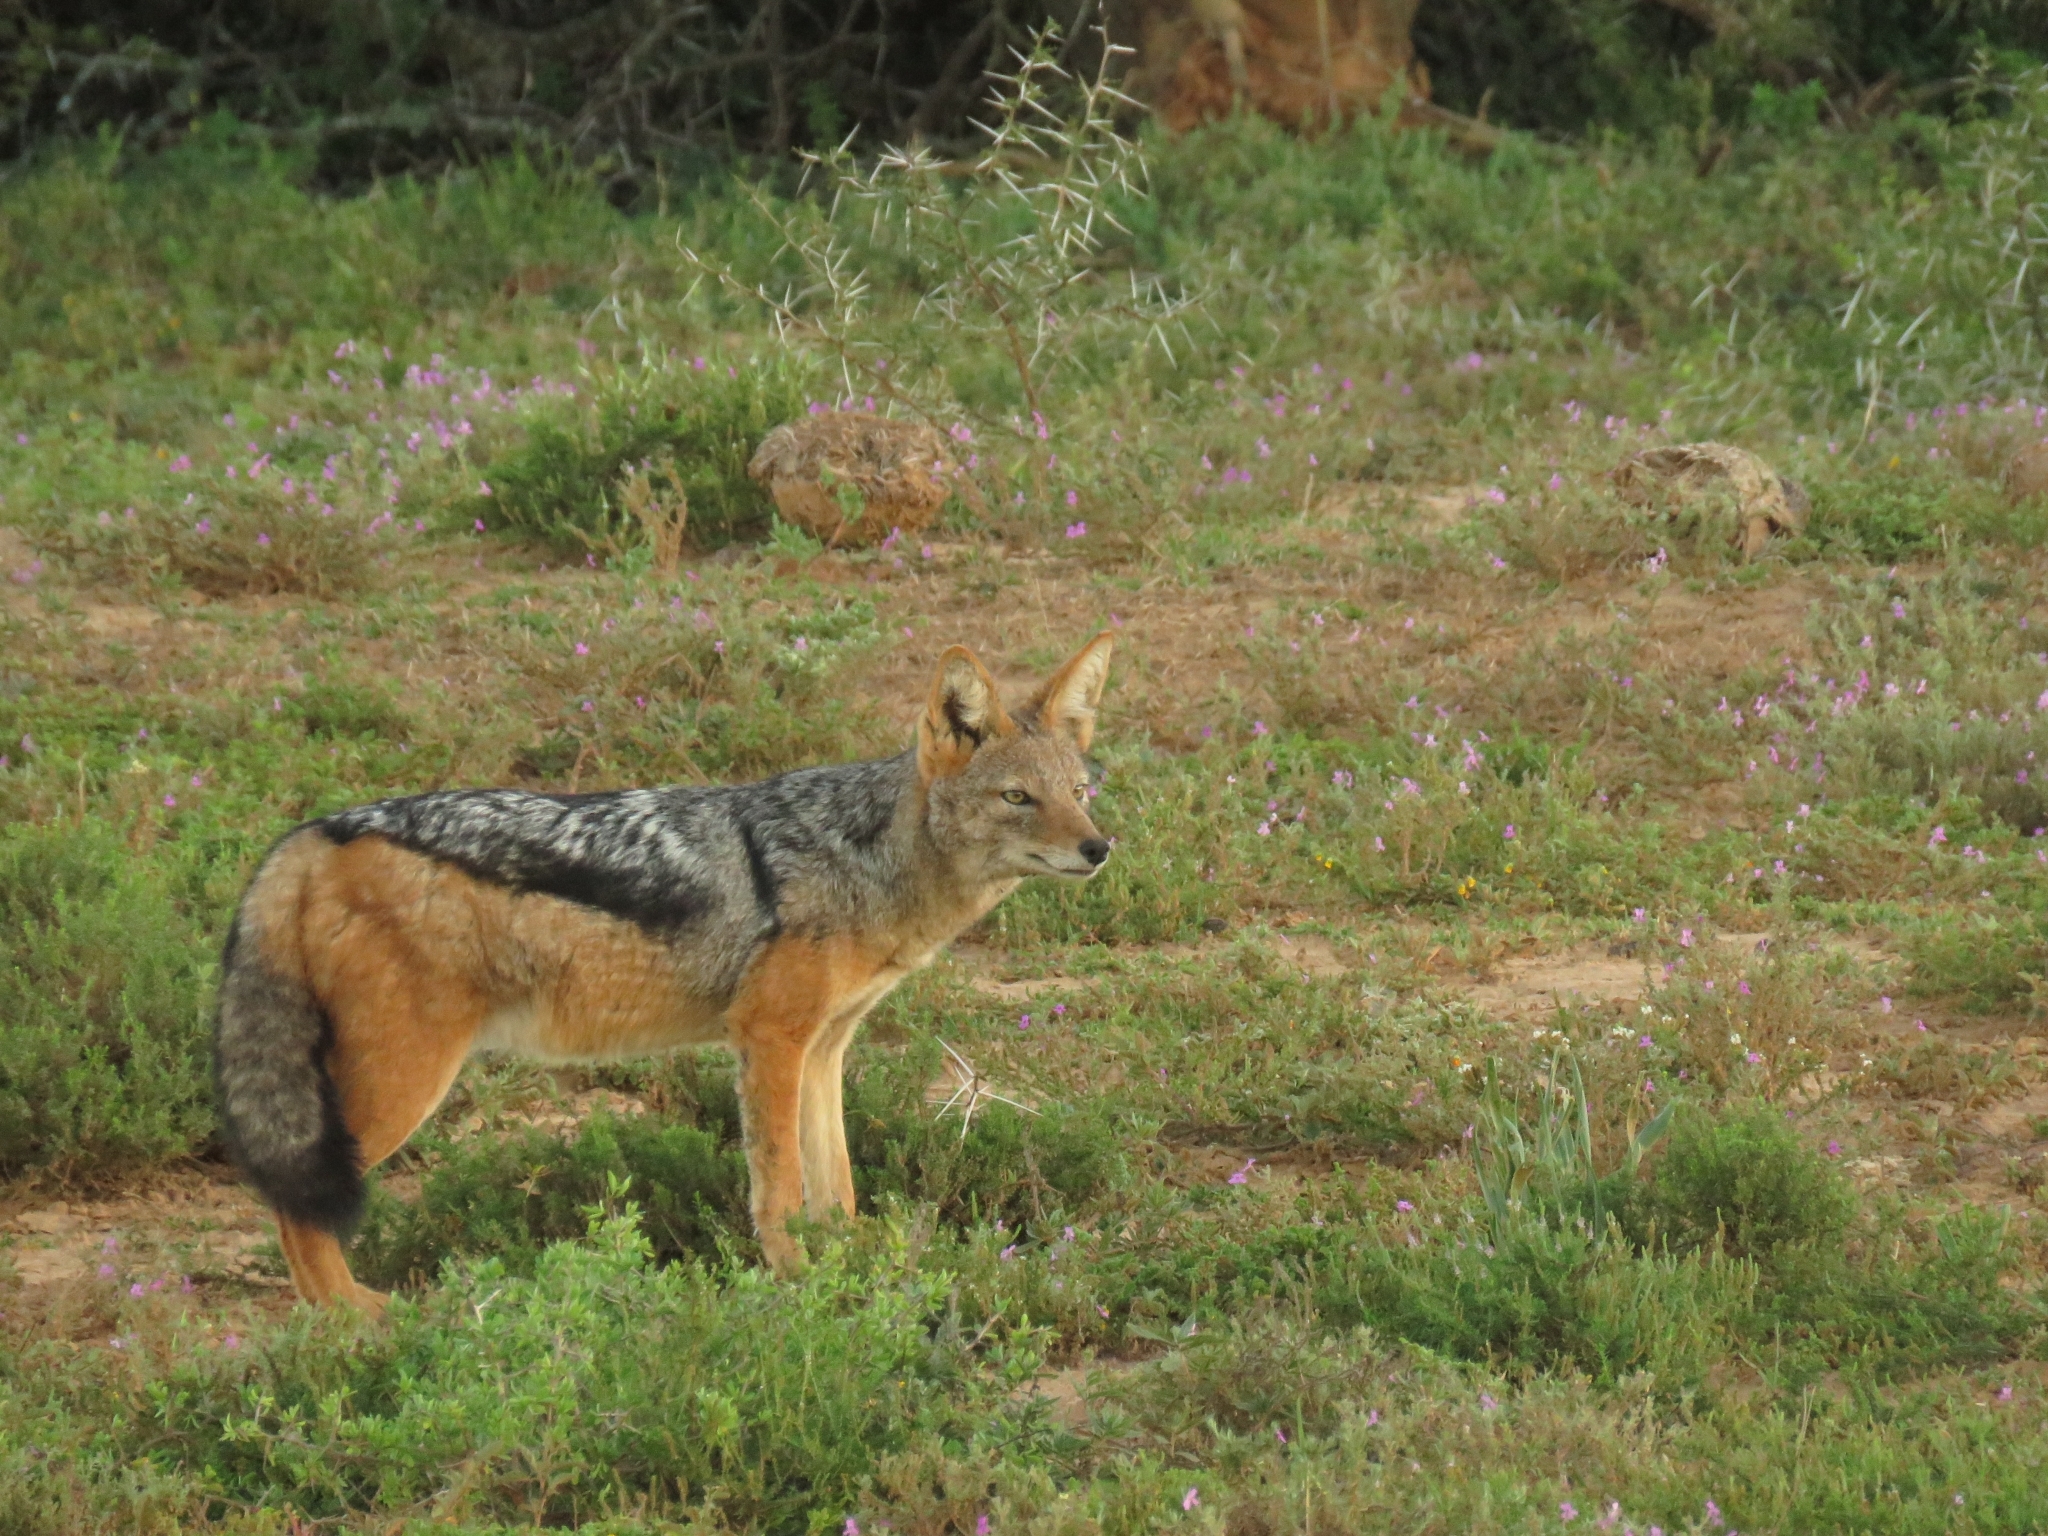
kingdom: Animalia
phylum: Chordata
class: Mammalia
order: Carnivora
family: Canidae
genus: Lupulella
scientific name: Lupulella
